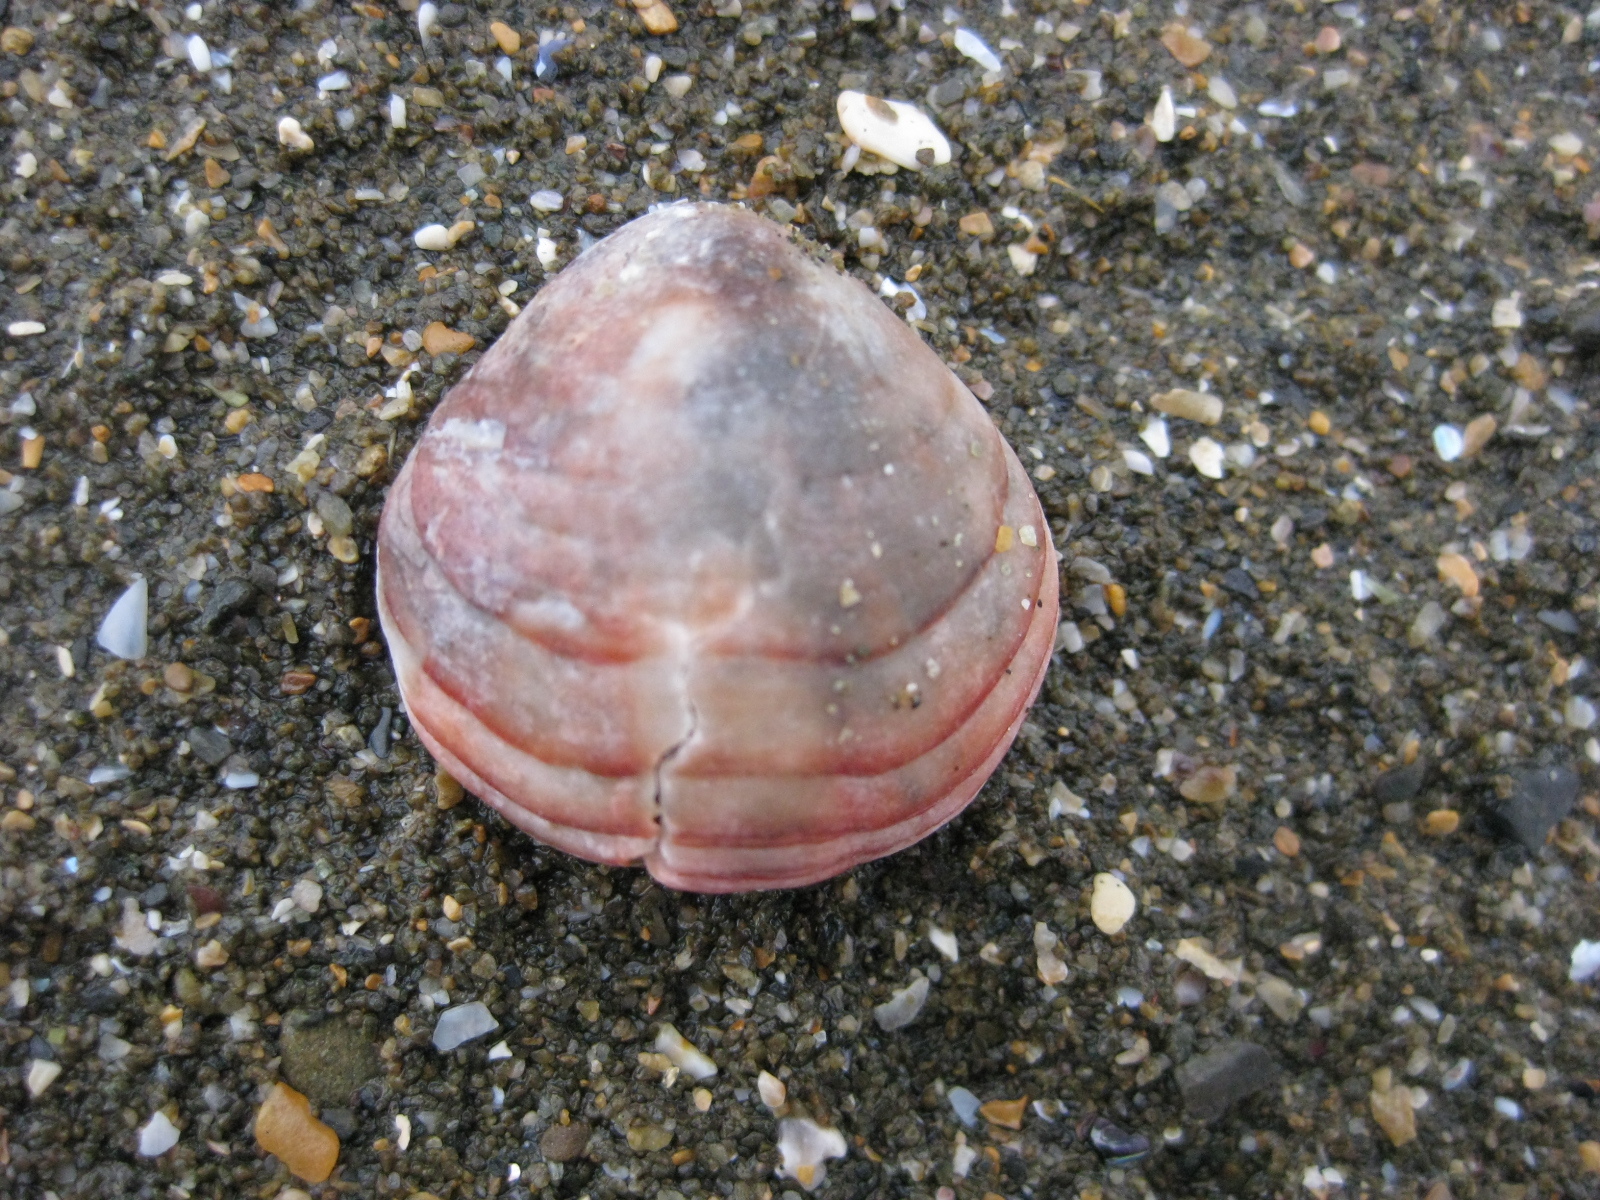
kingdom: Animalia
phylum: Brachiopoda
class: Rhynchonellata
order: Terebratulida
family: Terebratellidae
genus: Calloria
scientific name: Calloria inconspicua
